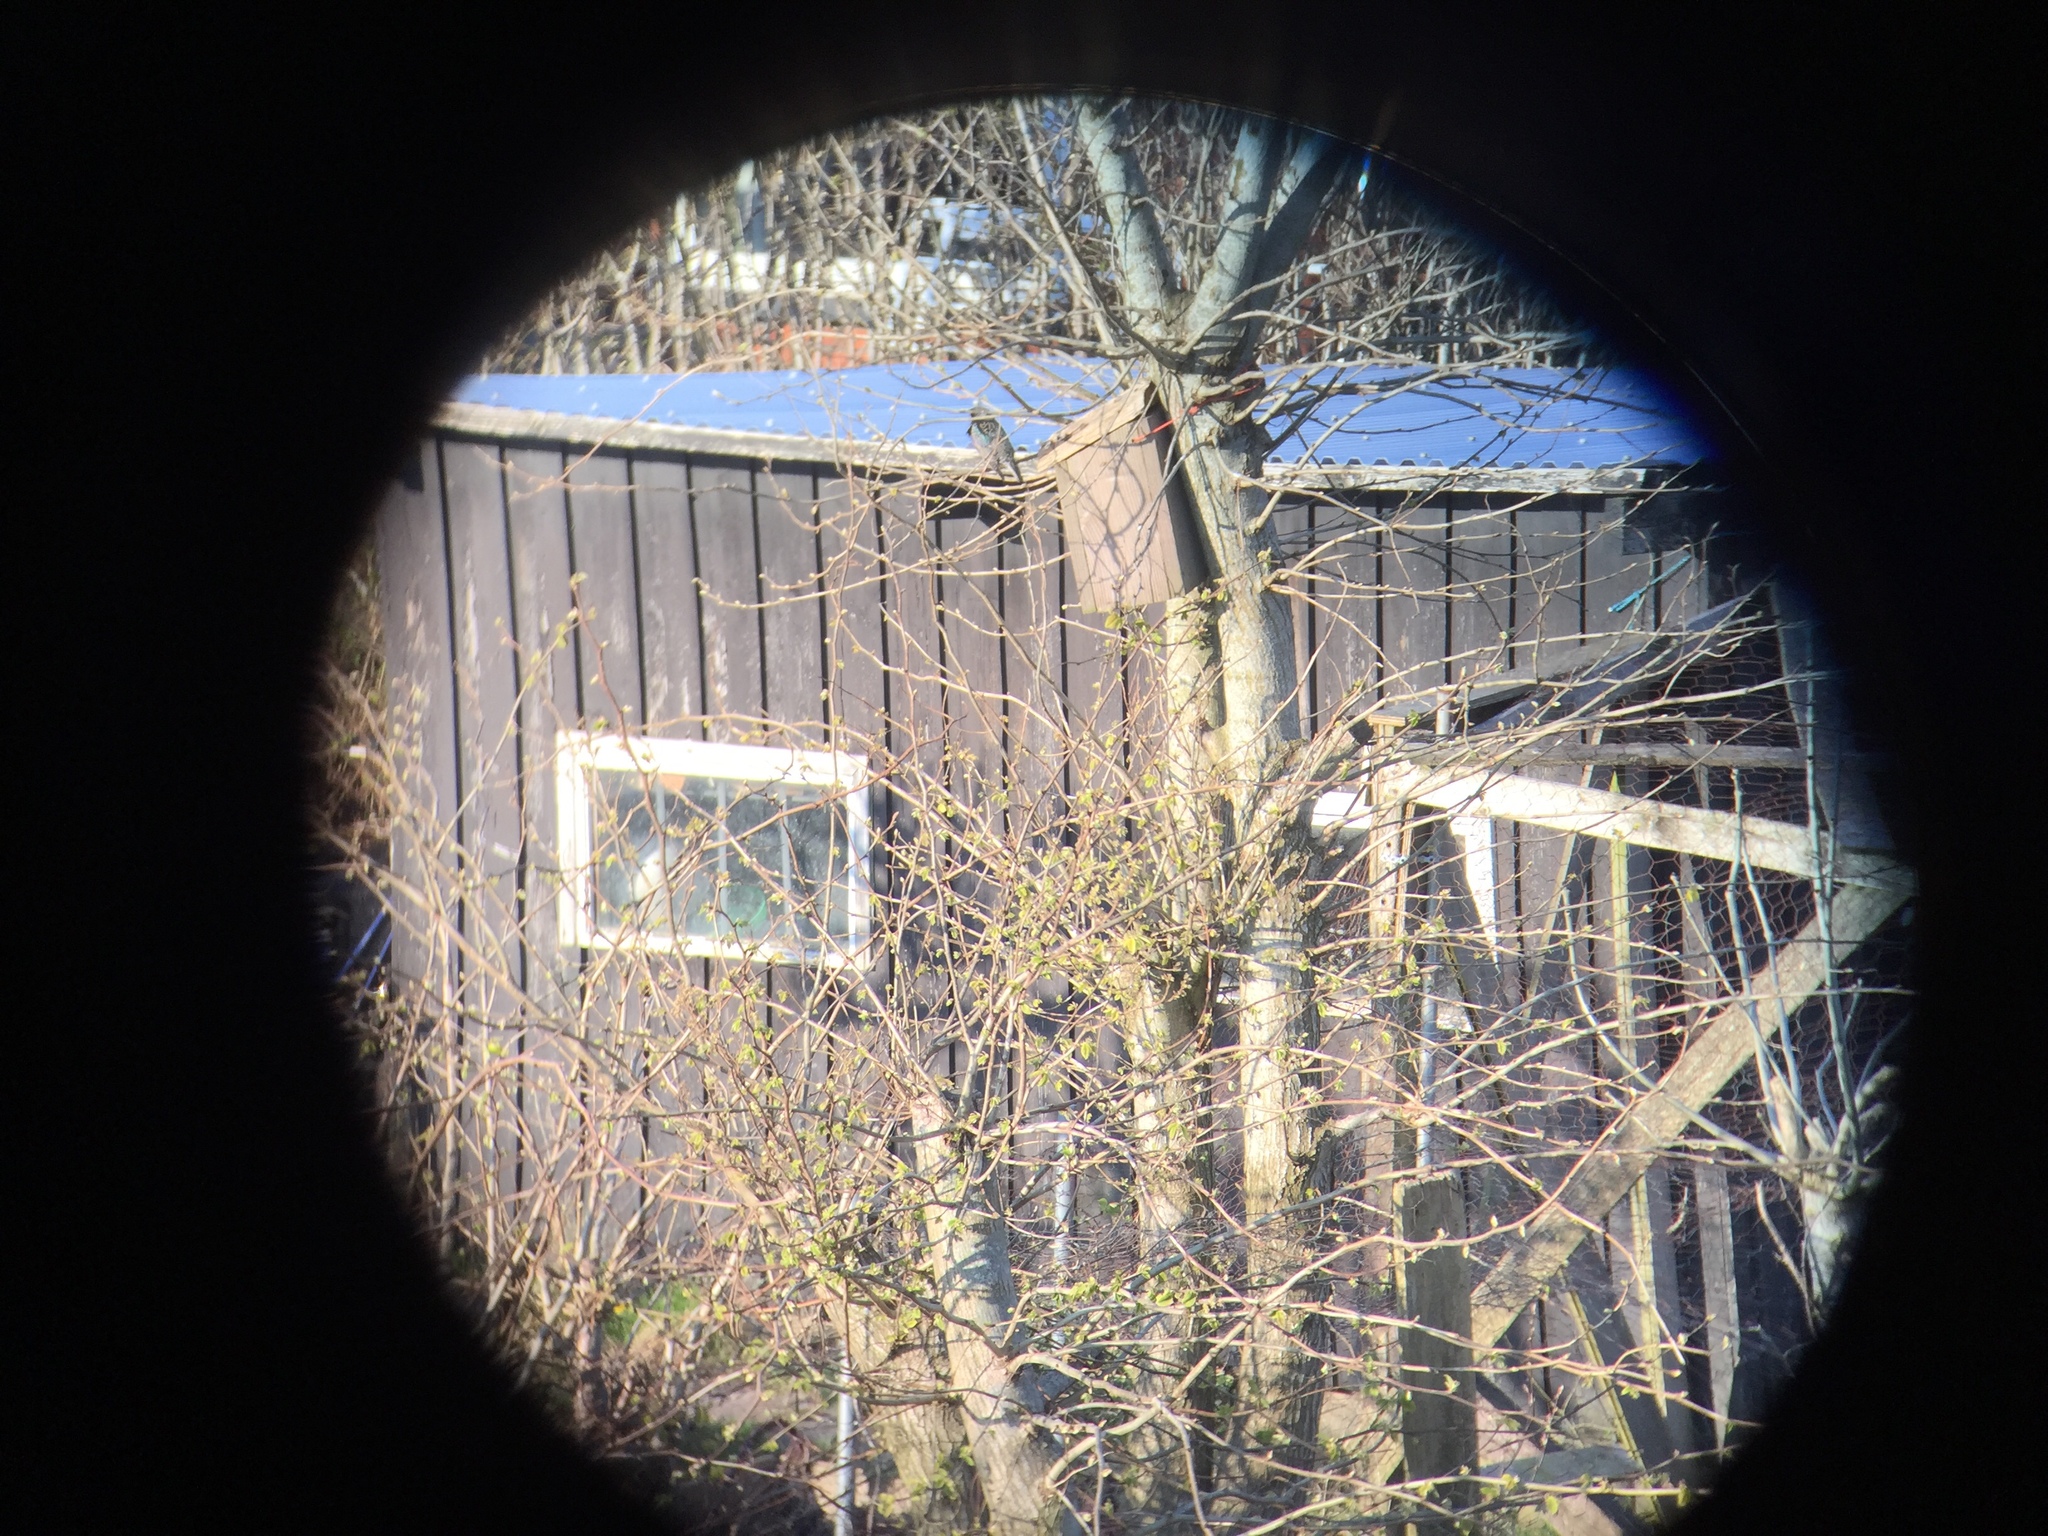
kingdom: Animalia
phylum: Chordata
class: Aves
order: Passeriformes
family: Sturnidae
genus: Sturnus
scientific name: Sturnus vulgaris
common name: Common starling
